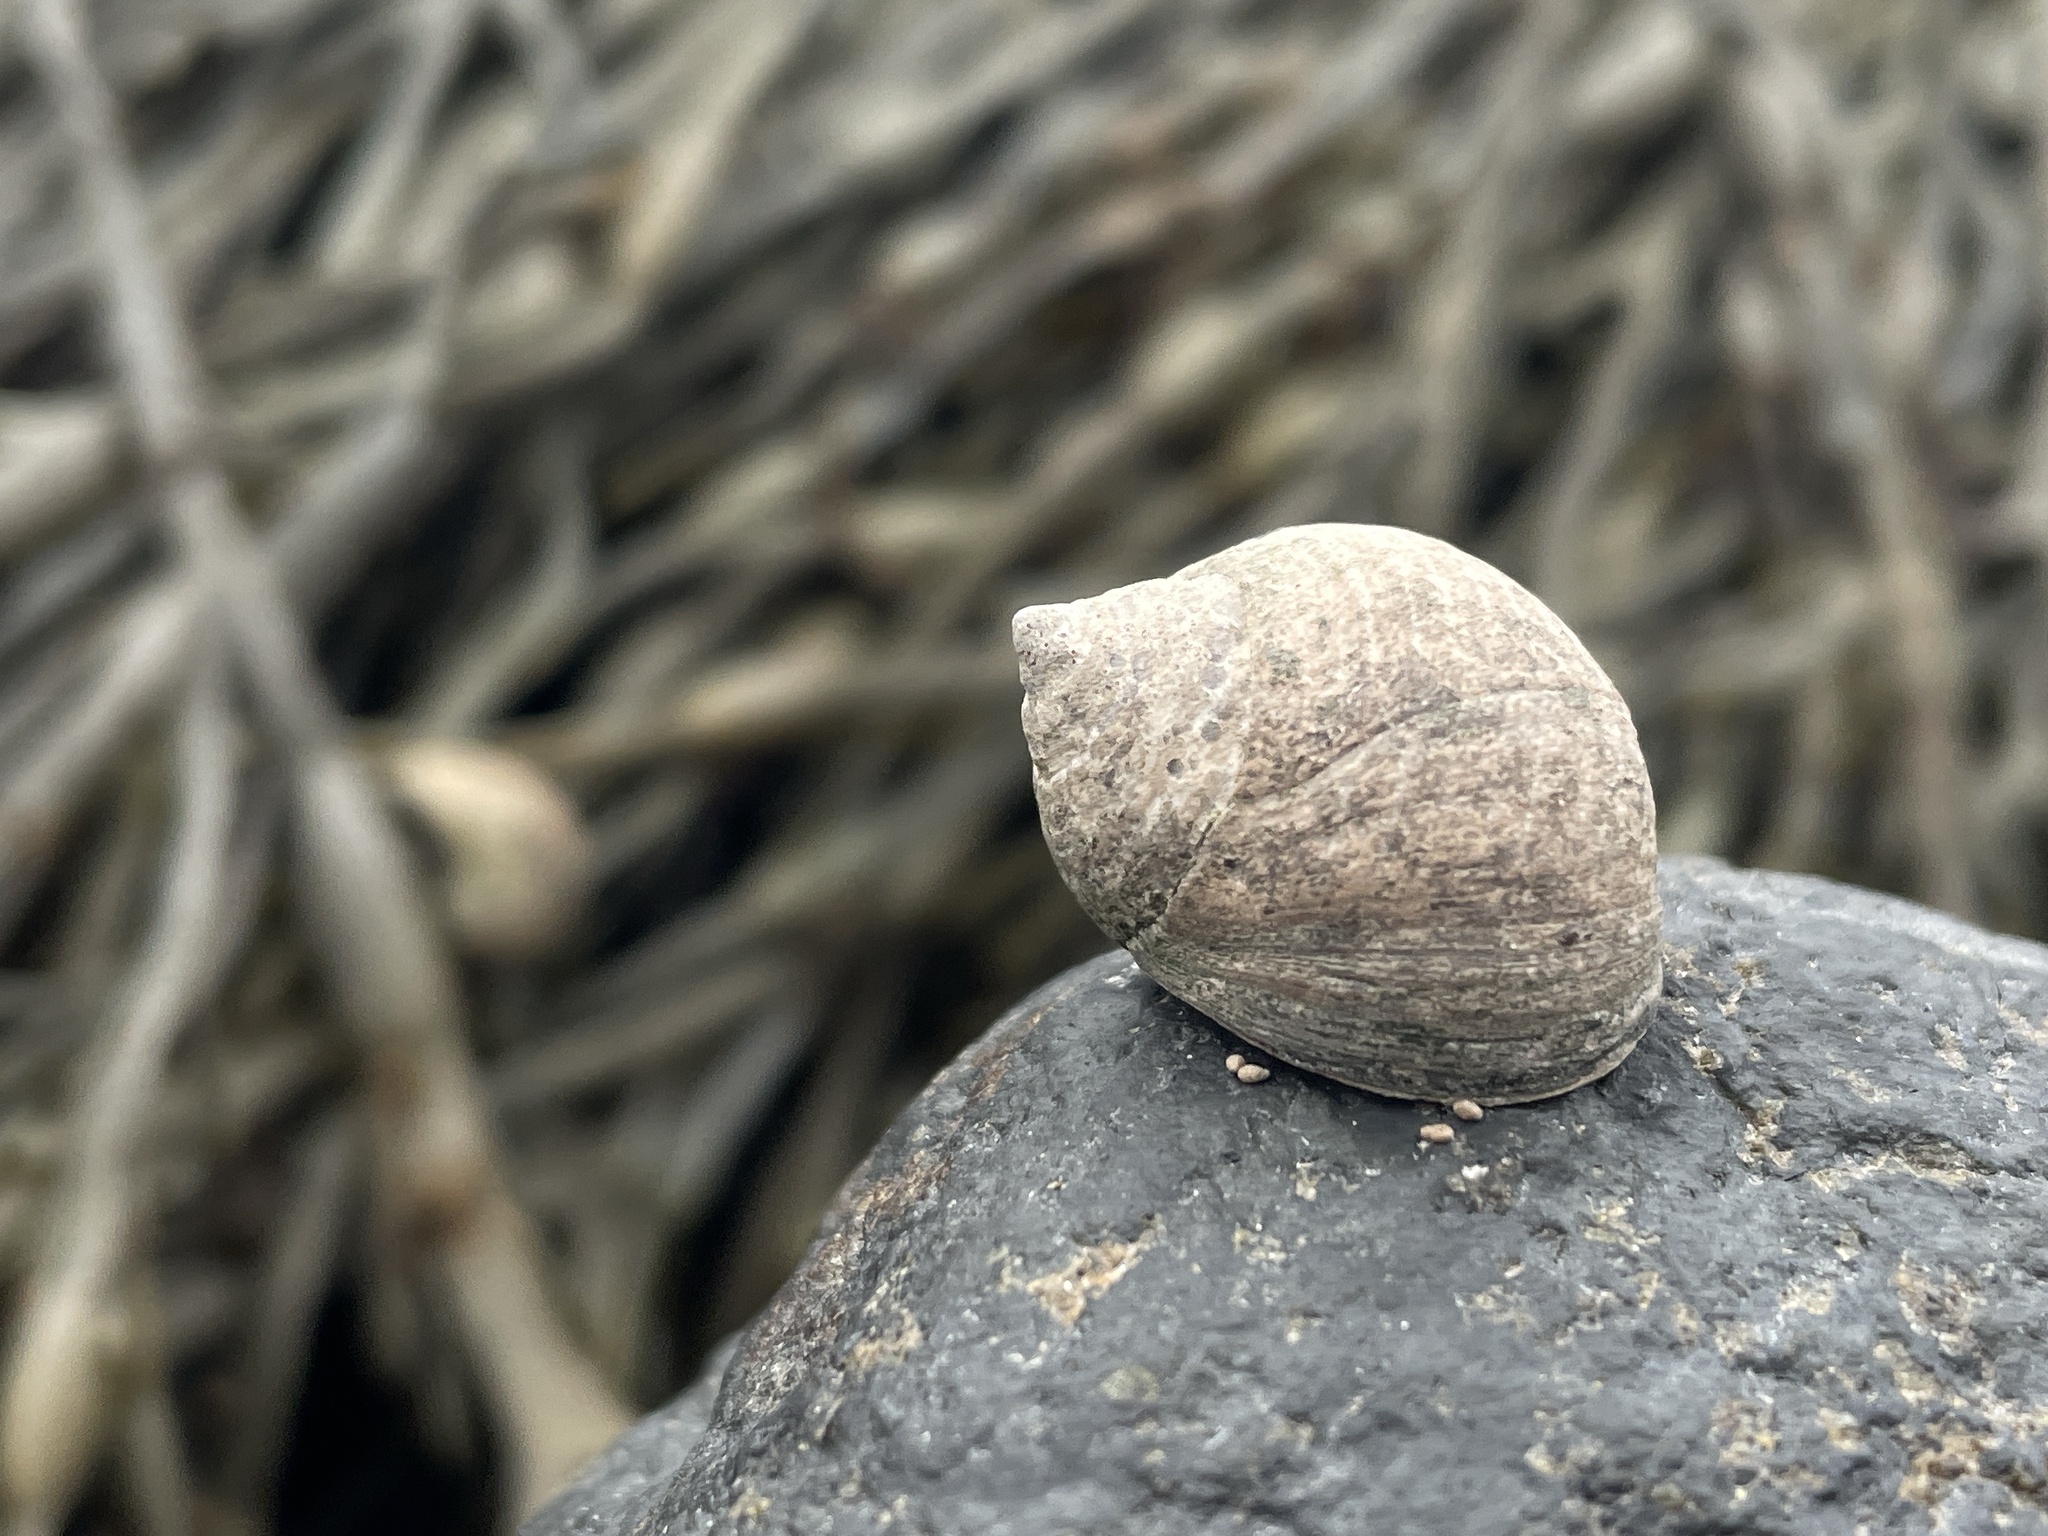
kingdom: Animalia
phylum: Mollusca
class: Gastropoda
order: Littorinimorpha
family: Littorinidae
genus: Littorina
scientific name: Littorina littorea
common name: Common periwinkle
